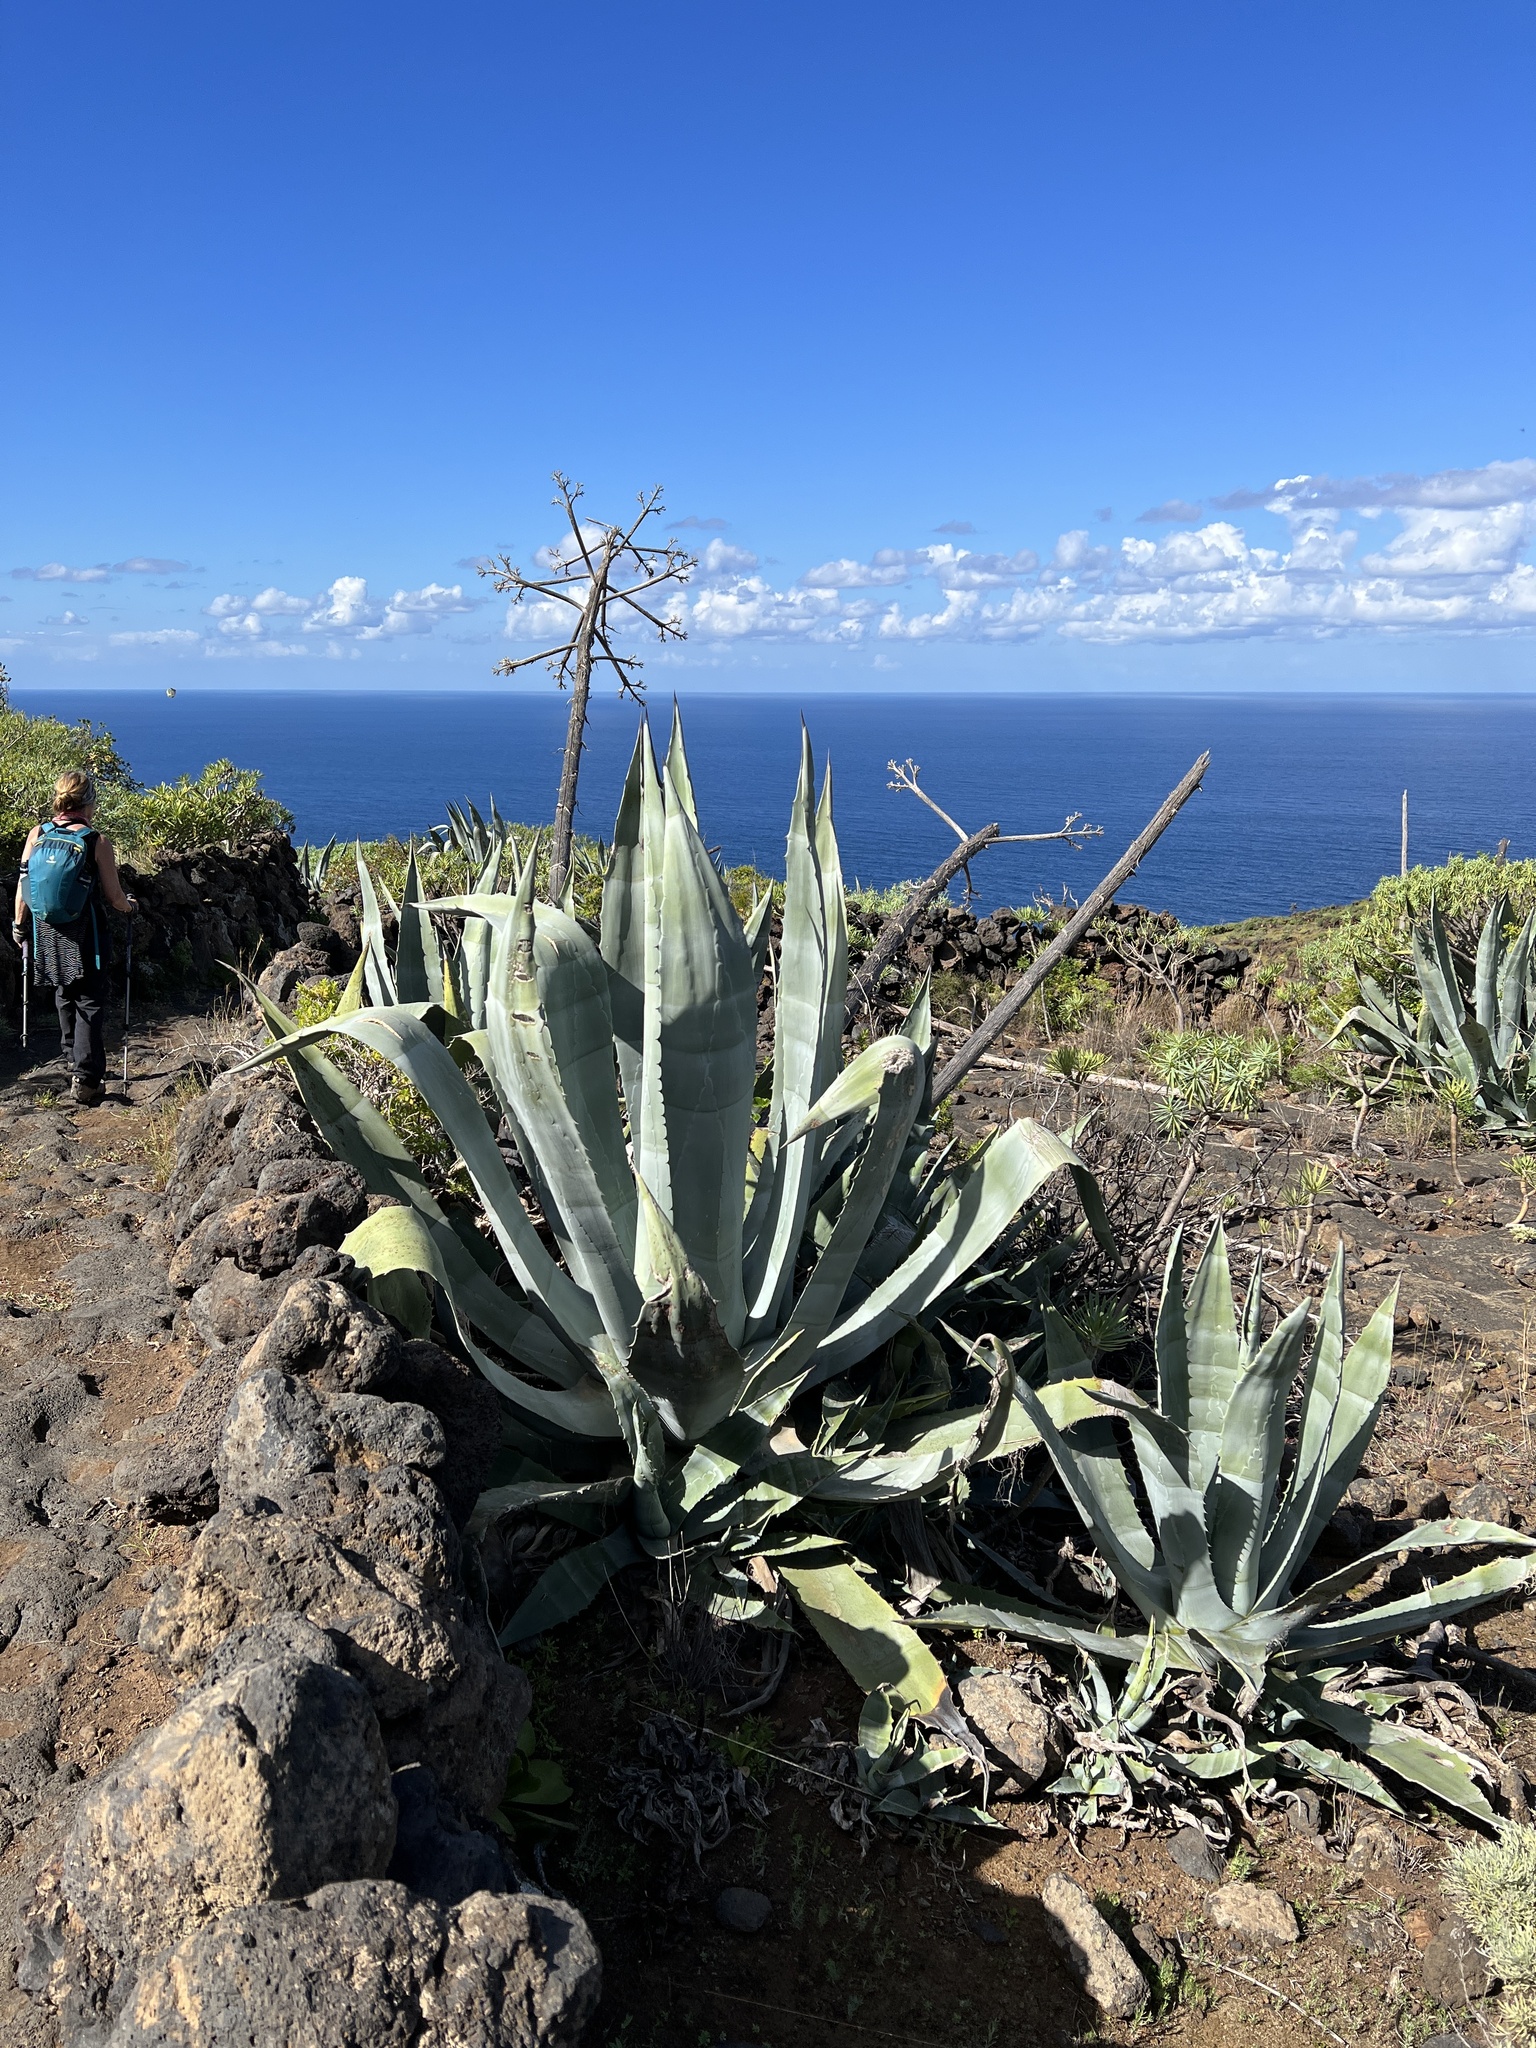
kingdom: Plantae
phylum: Tracheophyta
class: Liliopsida
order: Asparagales
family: Asparagaceae
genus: Agave
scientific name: Agave americana
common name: Centuryplant
